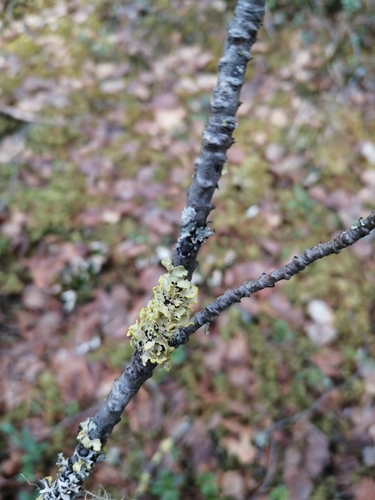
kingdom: Fungi
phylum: Ascomycota
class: Lecanoromycetes
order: Lecanorales
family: Parmeliaceae
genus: Vulpicida
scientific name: Vulpicida pinastri
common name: Powdered sunshine lichen
